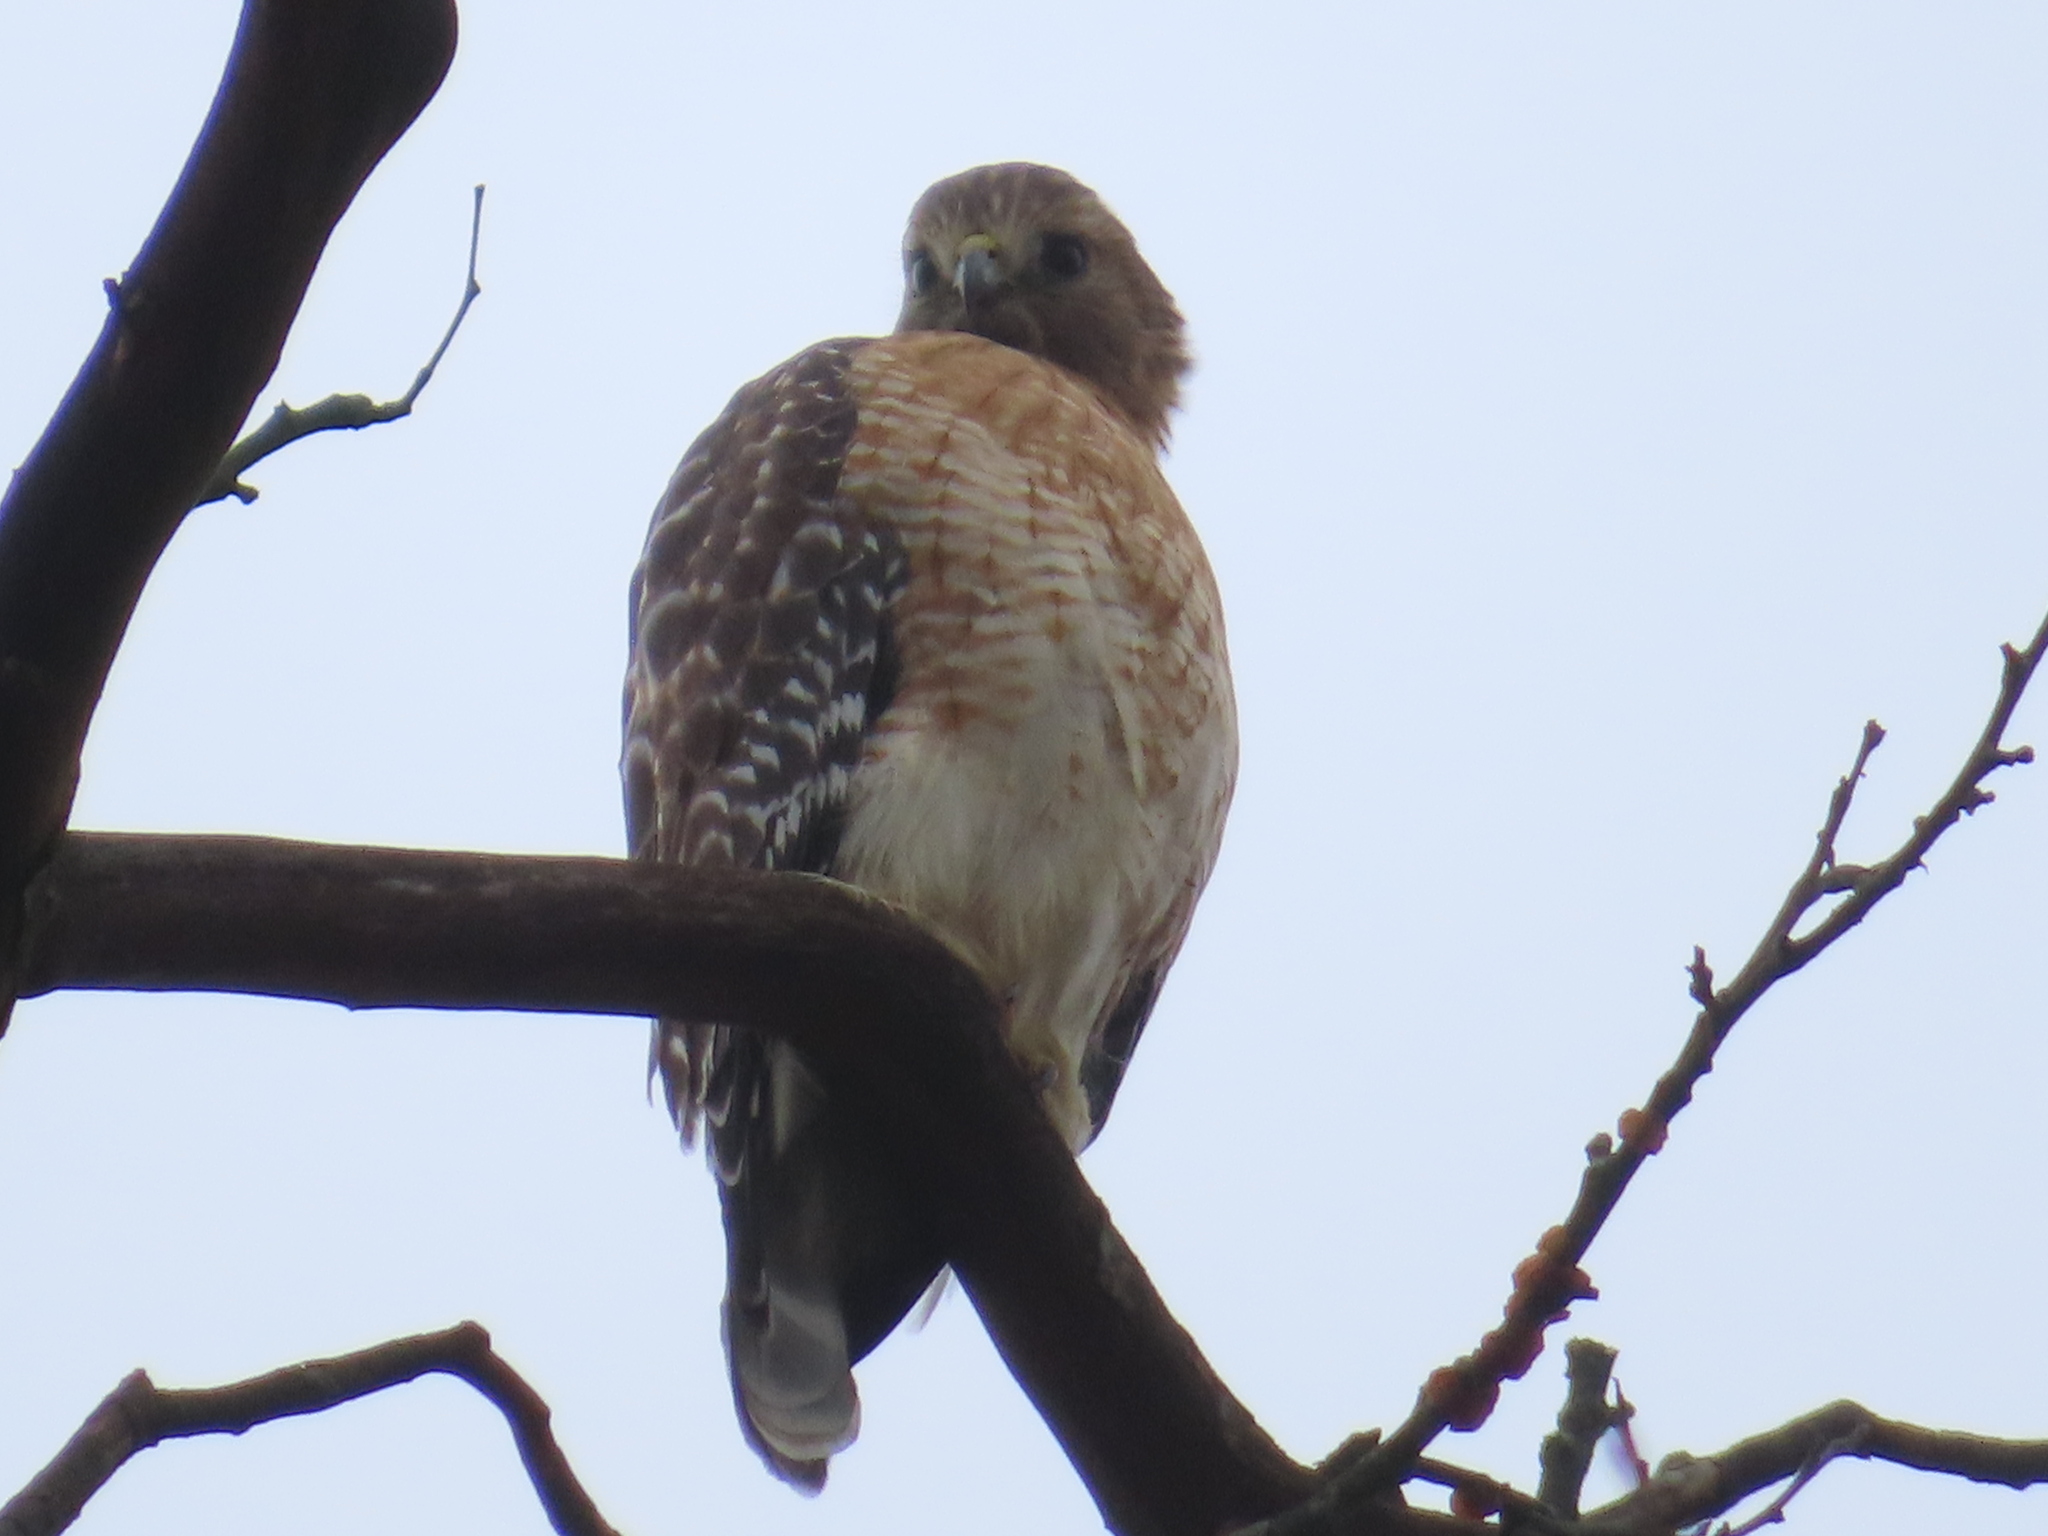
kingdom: Animalia
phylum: Chordata
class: Aves
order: Accipitriformes
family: Accipitridae
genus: Buteo
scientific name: Buteo lineatus
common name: Red-shouldered hawk
